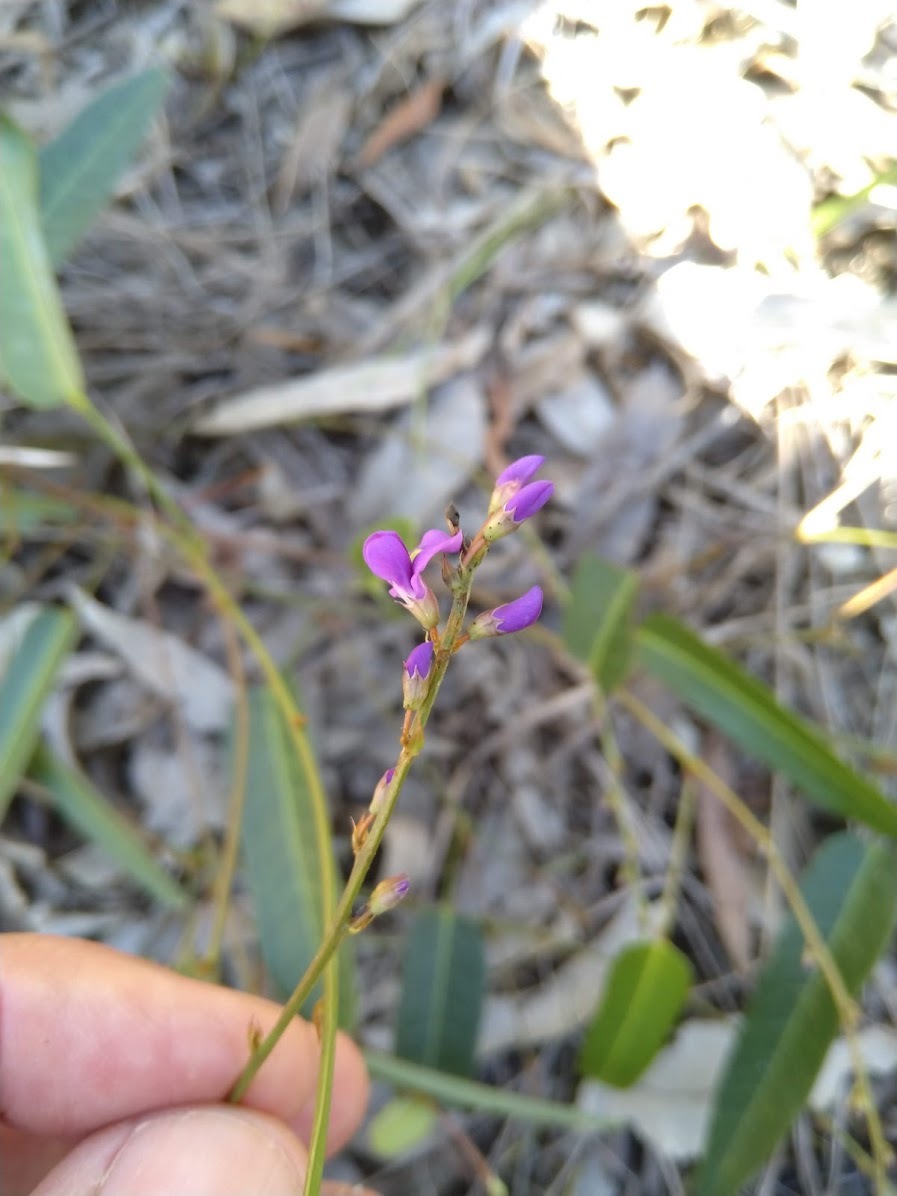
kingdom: Plantae
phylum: Tracheophyta
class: Magnoliopsida
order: Fabales
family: Fabaceae
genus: Hardenbergia
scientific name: Hardenbergia violacea
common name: Coral-pea
